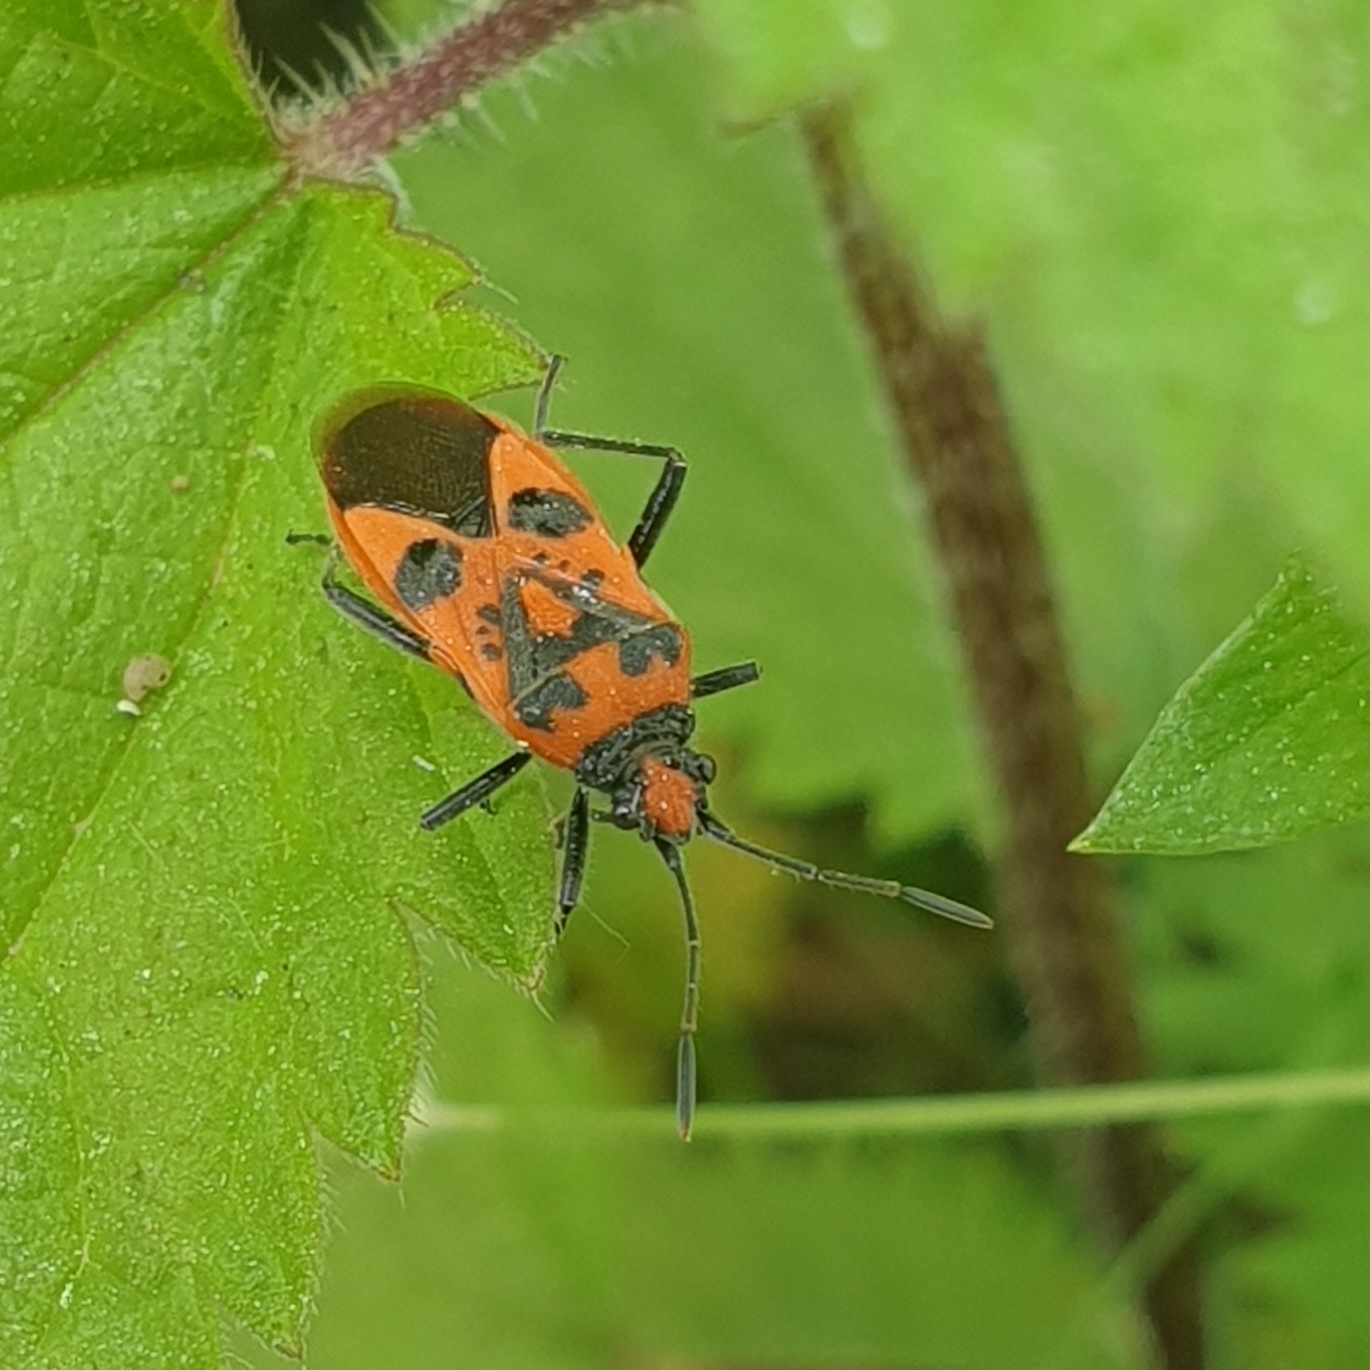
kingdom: Animalia
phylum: Arthropoda
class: Insecta
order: Hemiptera
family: Rhopalidae
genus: Corizus
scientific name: Corizus hyoscyami
